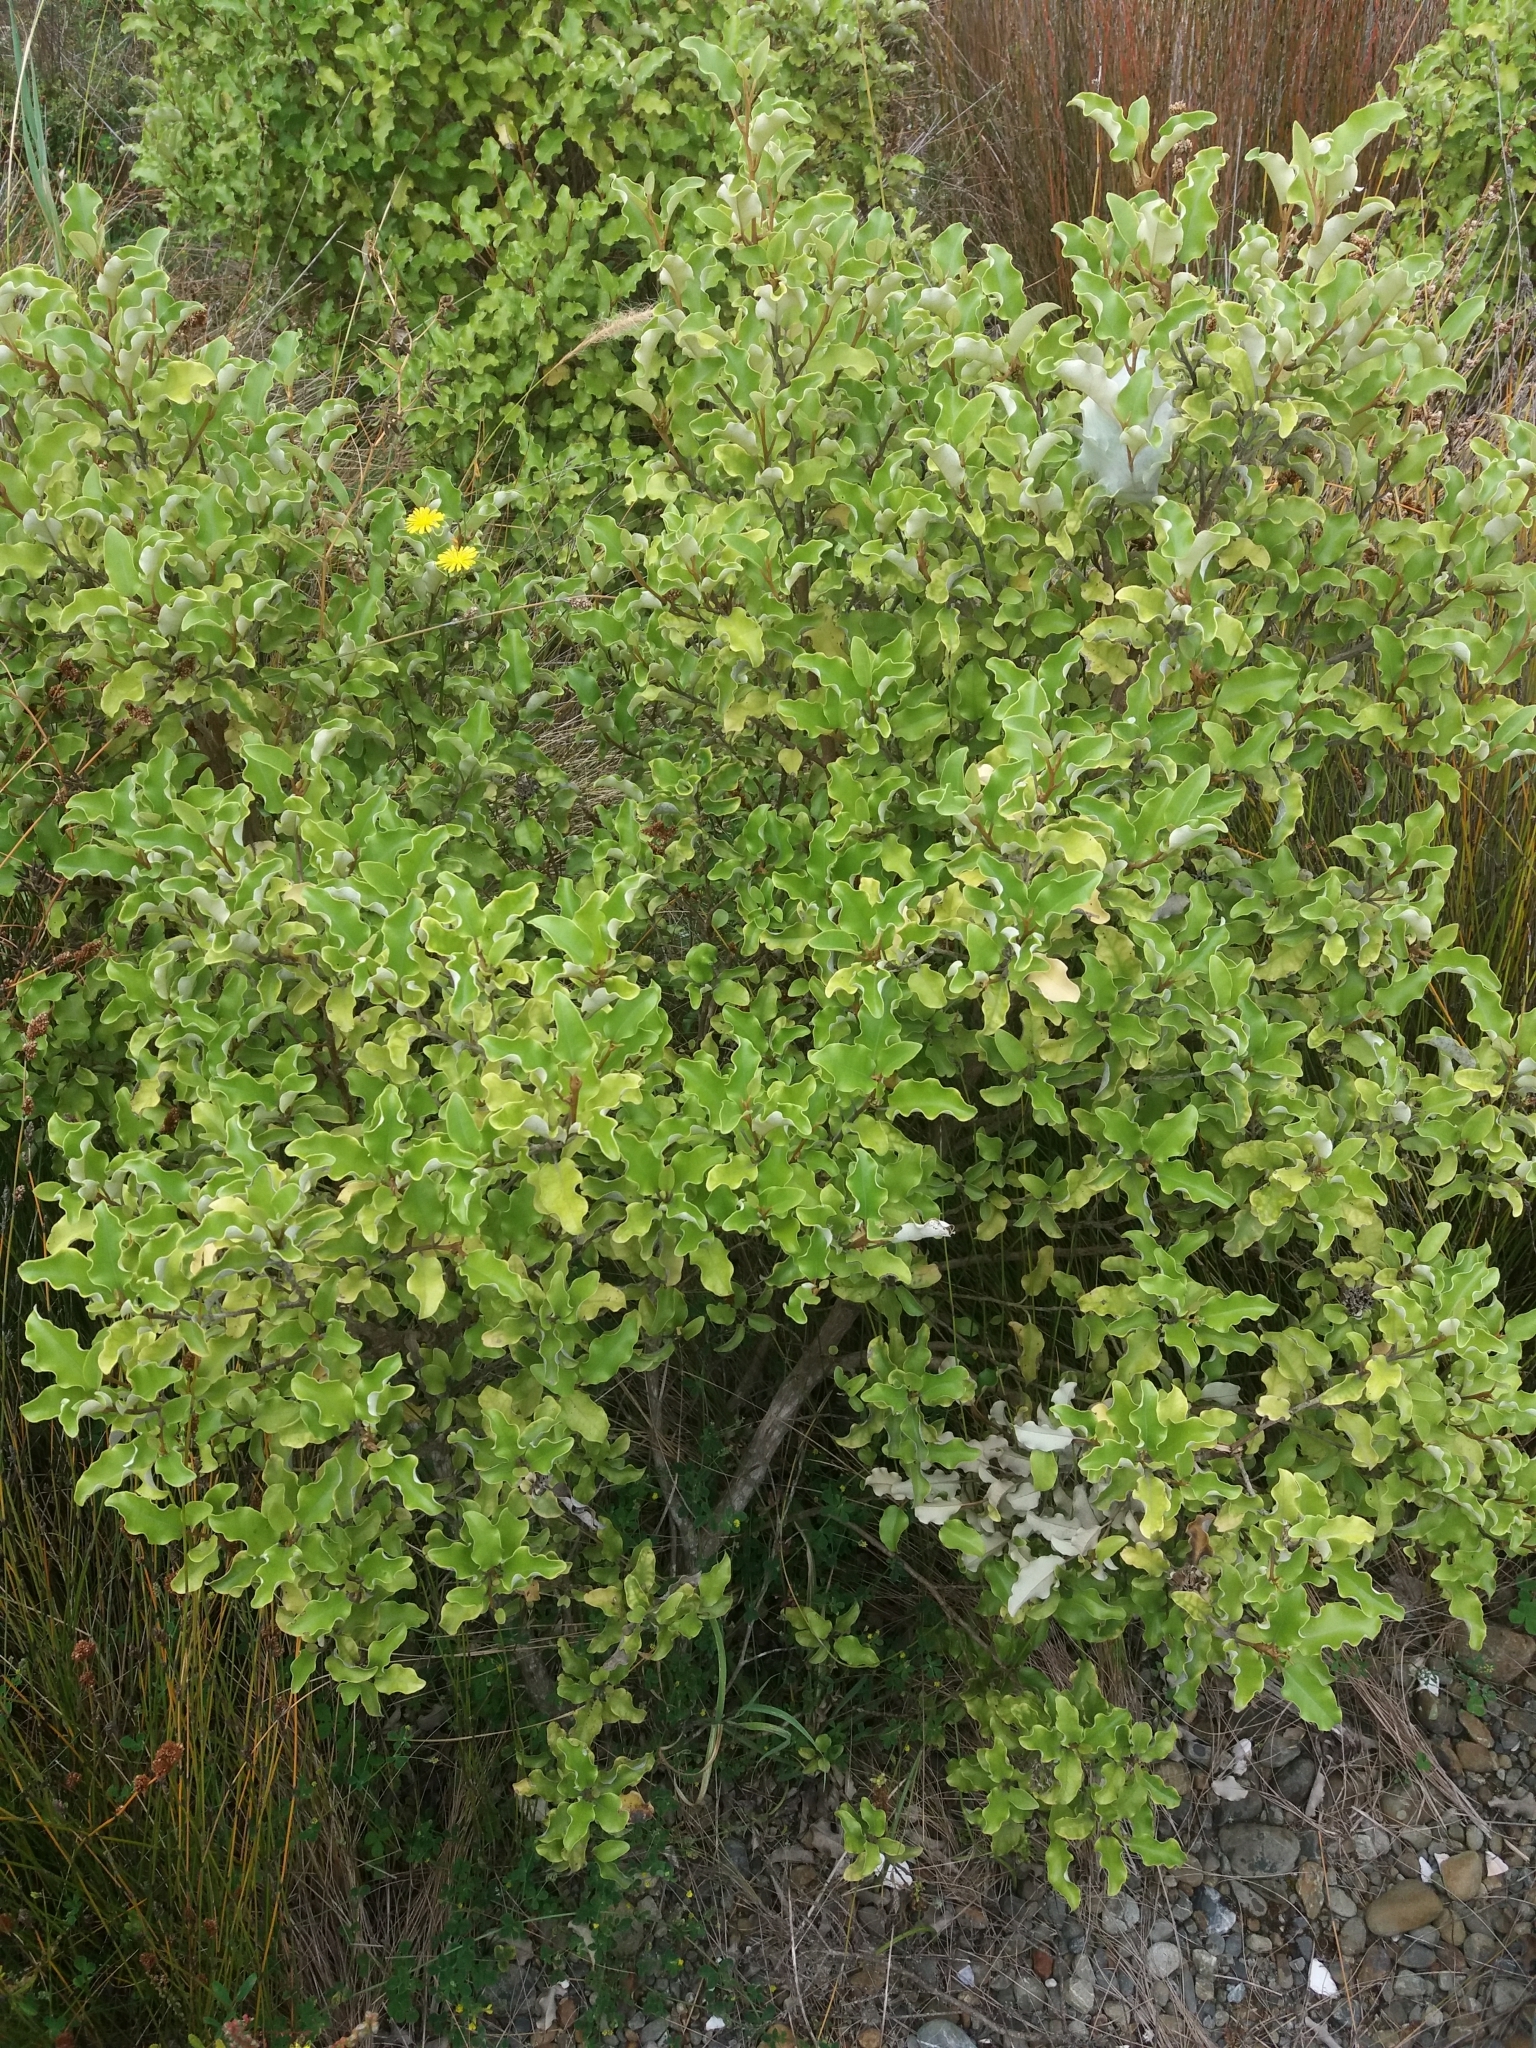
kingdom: Plantae
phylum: Tracheophyta
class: Magnoliopsida
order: Apiales
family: Pittosporaceae
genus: Pittosporum
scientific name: Pittosporum tenuifolium
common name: Kohuhu
